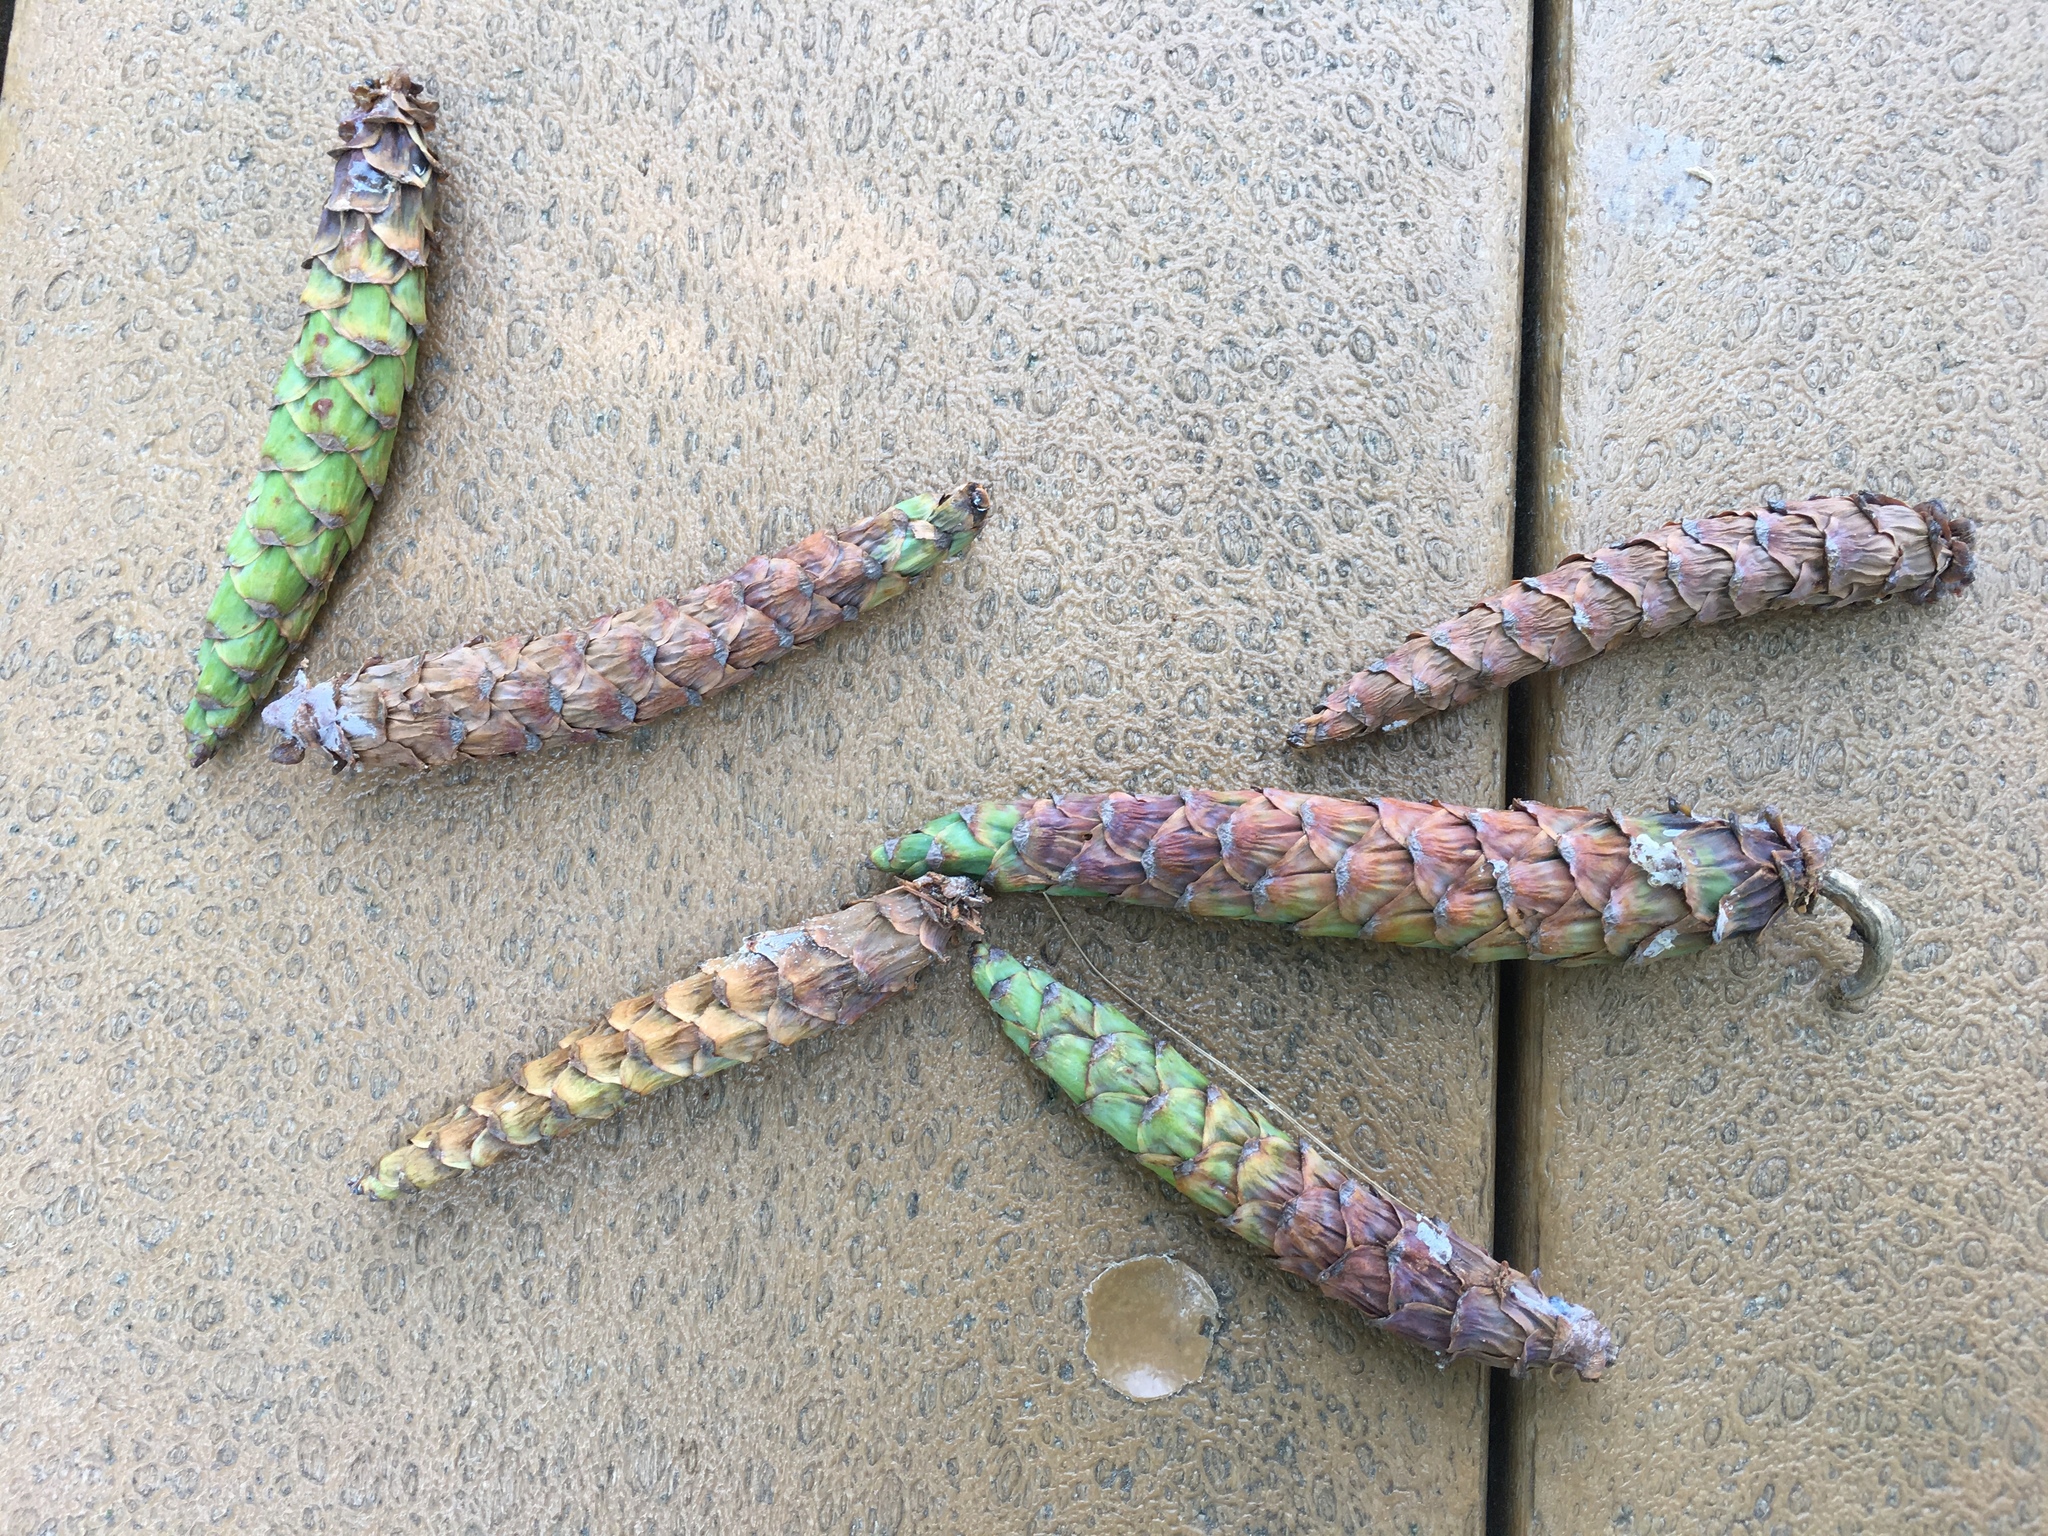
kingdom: Plantae
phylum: Tracheophyta
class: Pinopsida
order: Pinales
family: Pinaceae
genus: Pinus
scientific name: Pinus strobus
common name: Weymouth pine
